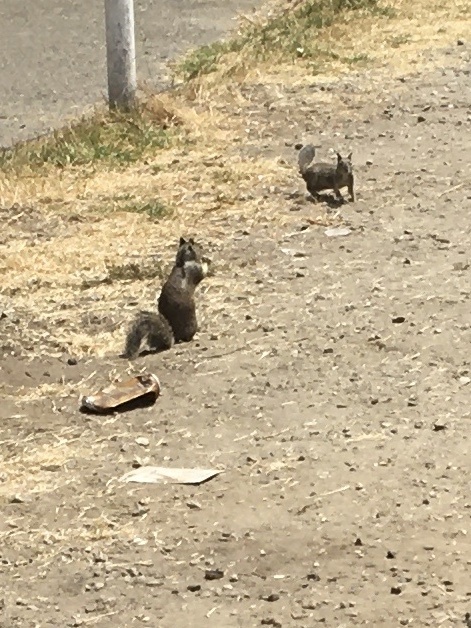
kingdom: Animalia
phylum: Chordata
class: Mammalia
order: Rodentia
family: Sciuridae
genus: Otospermophilus
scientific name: Otospermophilus beecheyi
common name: California ground squirrel
